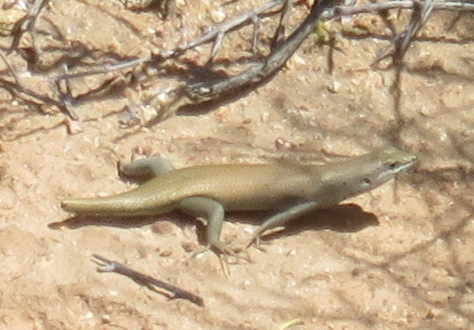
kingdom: Animalia
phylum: Chordata
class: Squamata
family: Scincidae
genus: Trachylepis
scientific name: Trachylepis sulcata
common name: Western rock skink
